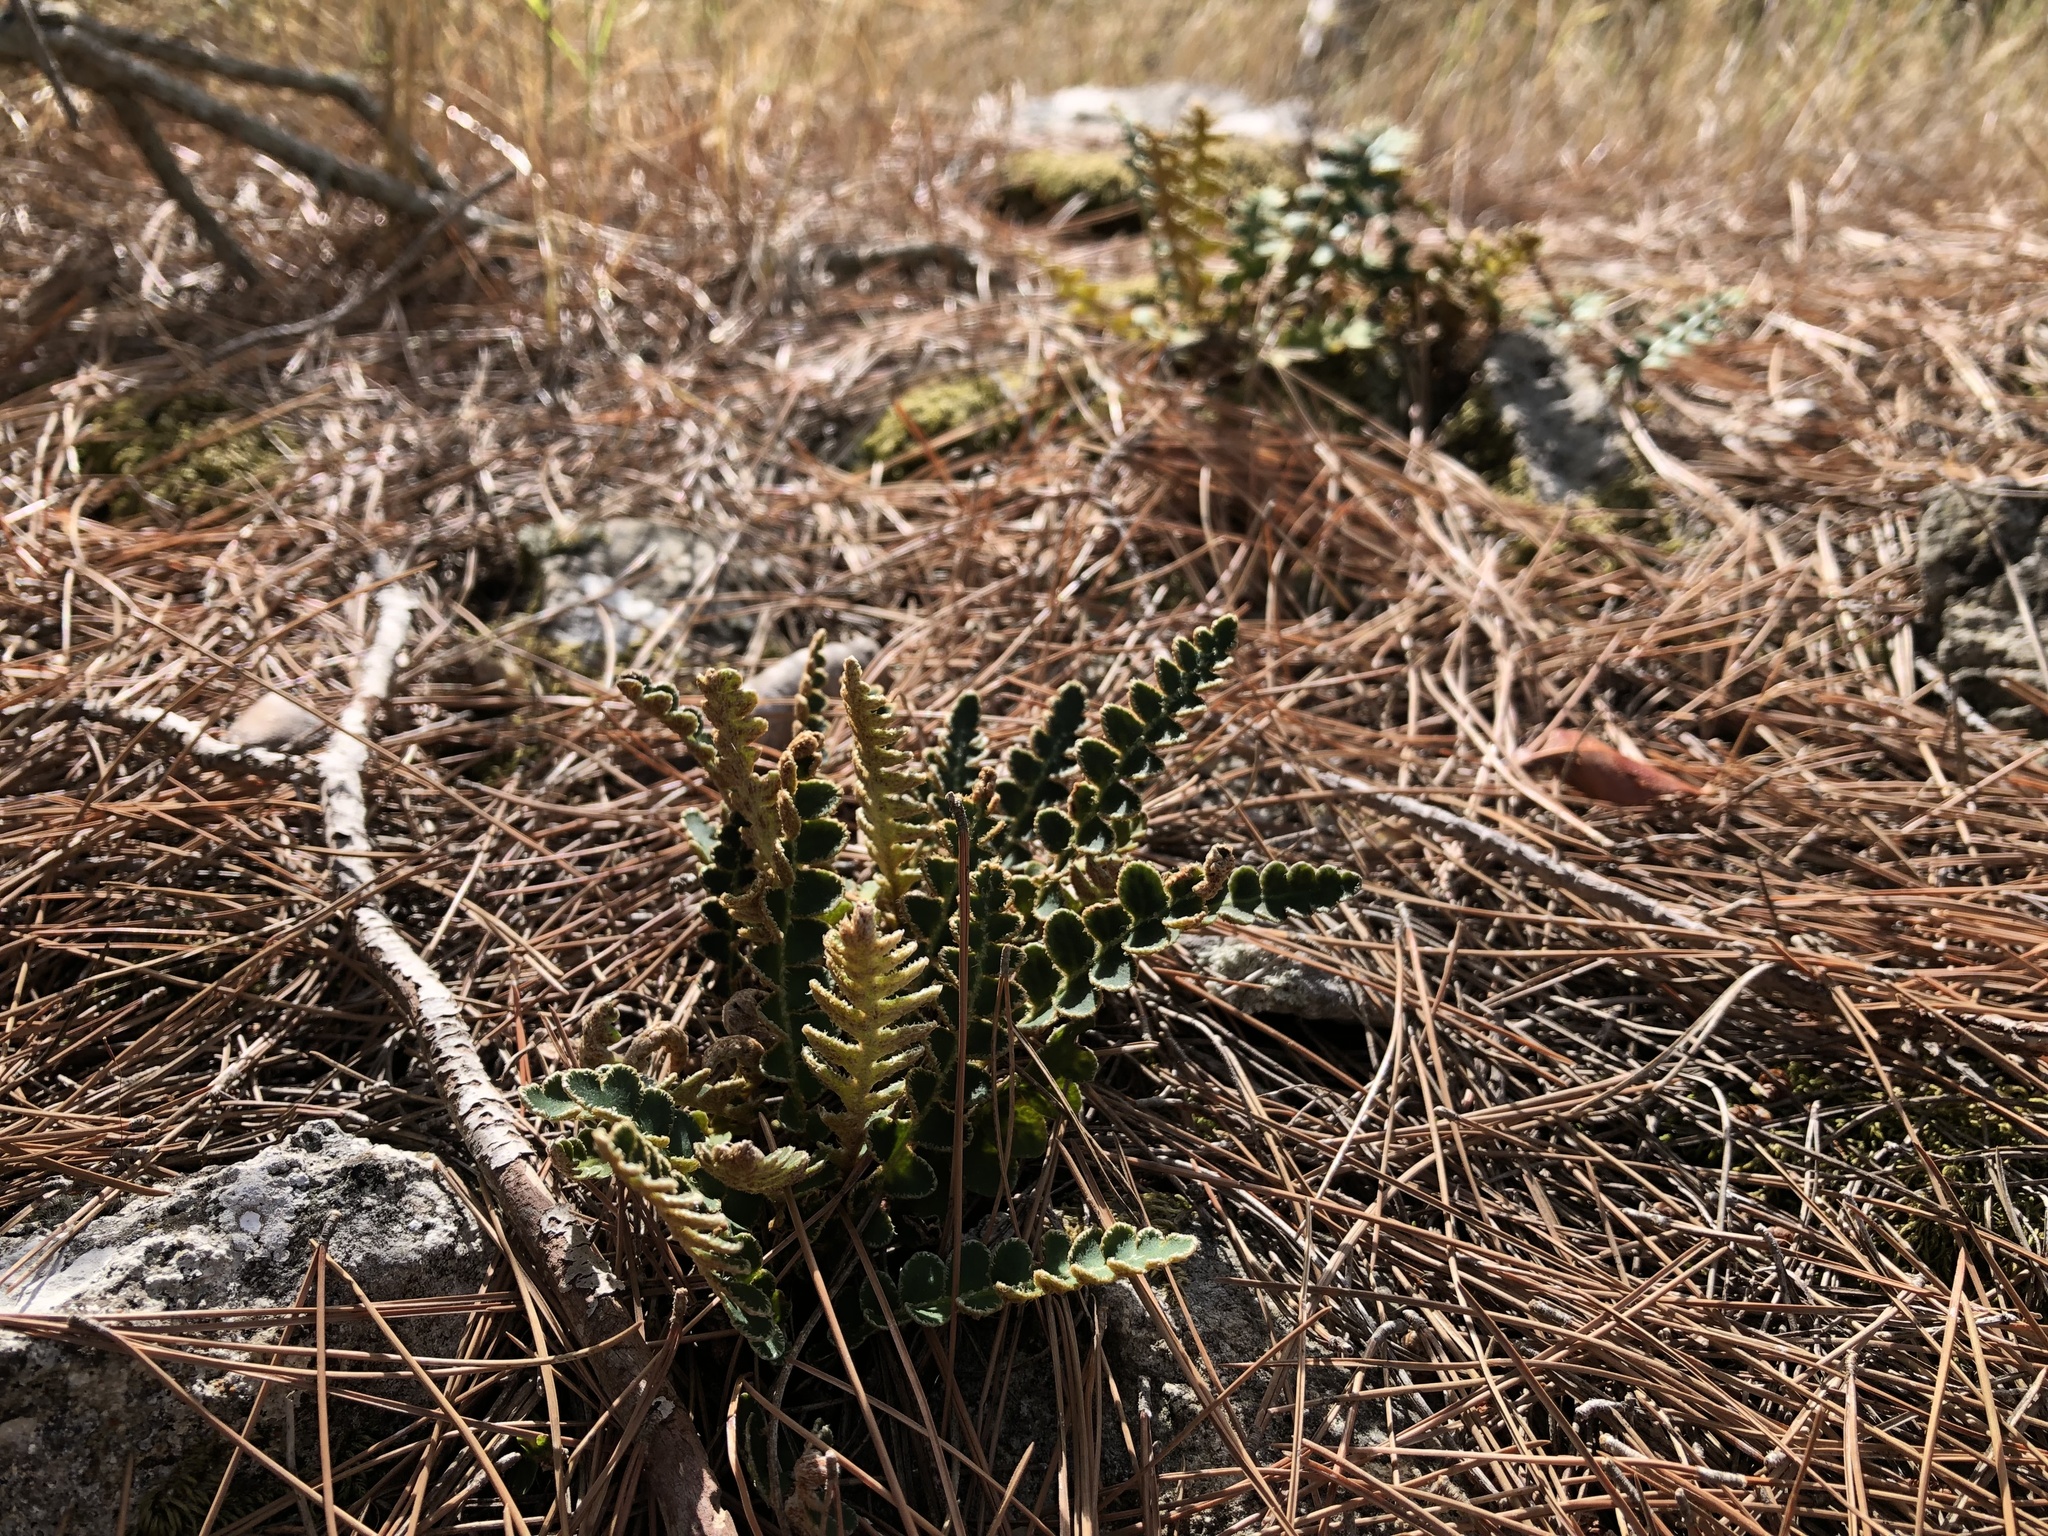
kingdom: Plantae
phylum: Tracheophyta
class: Polypodiopsida
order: Polypodiales
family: Aspleniaceae
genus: Asplenium
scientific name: Asplenium ceterach
